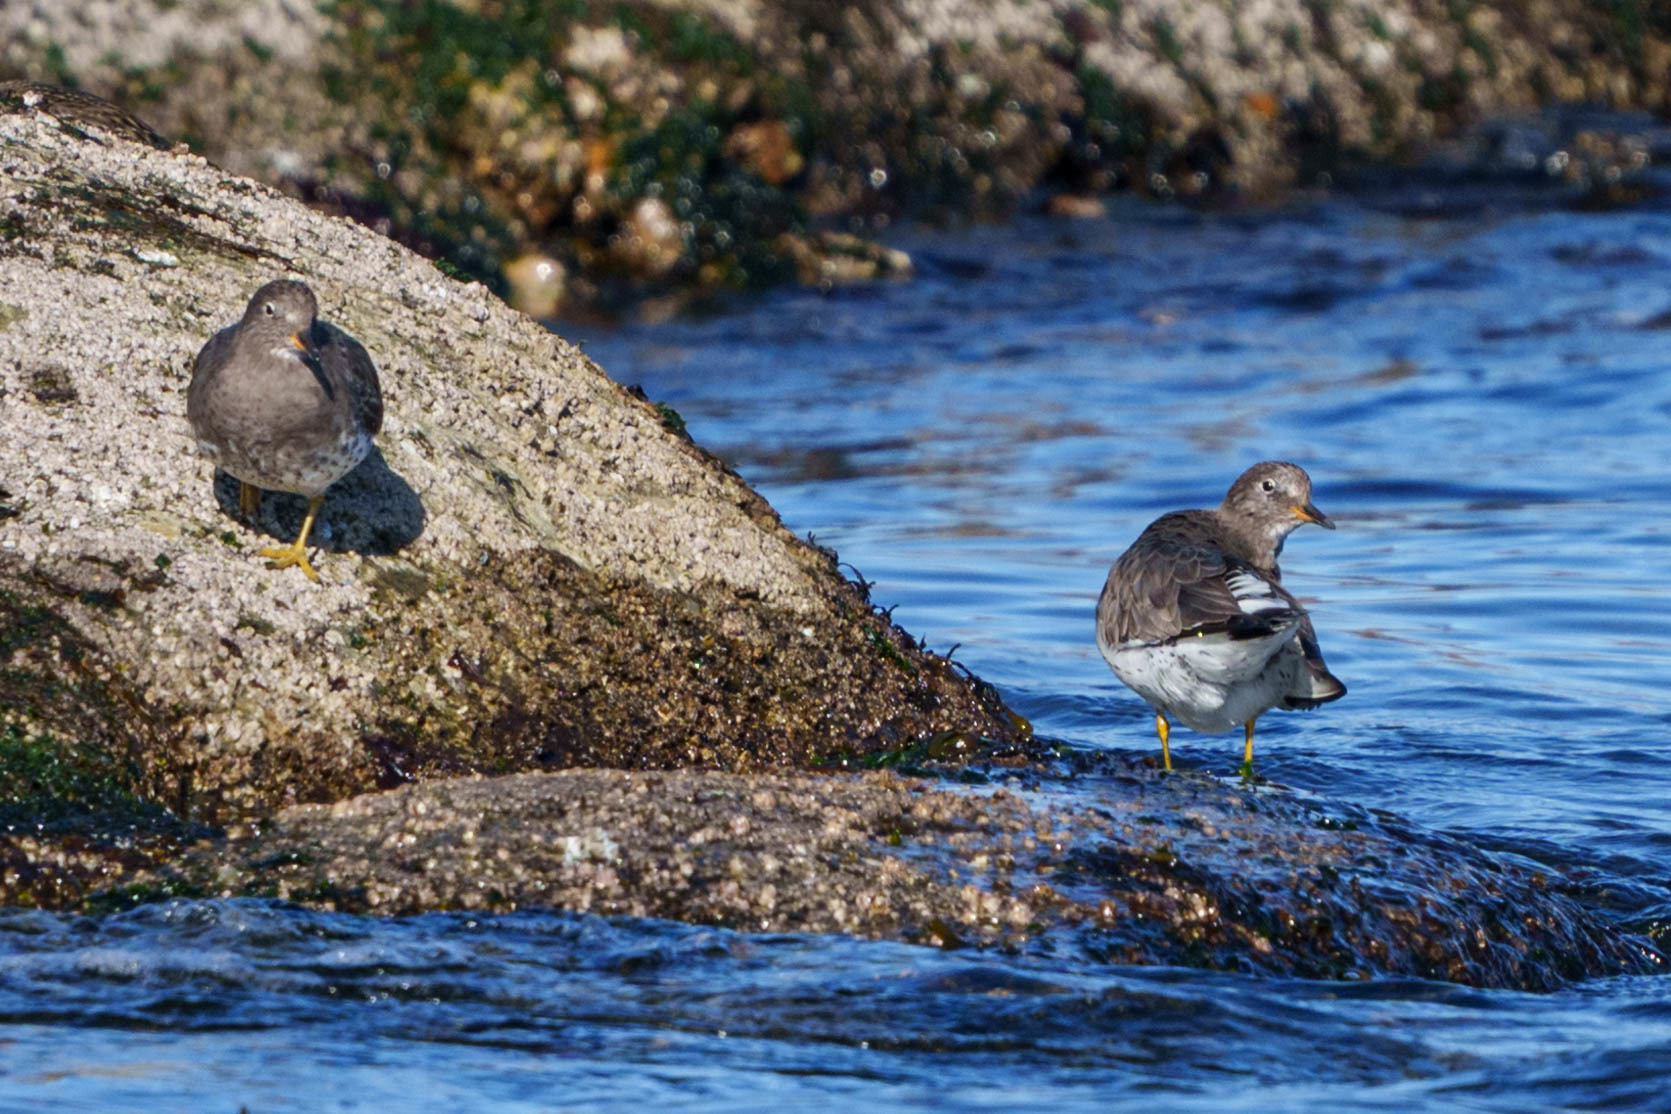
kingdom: Animalia
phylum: Chordata
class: Aves
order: Charadriiformes
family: Scolopacidae
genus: Calidris
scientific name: Calidris virgata
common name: Surfbird
